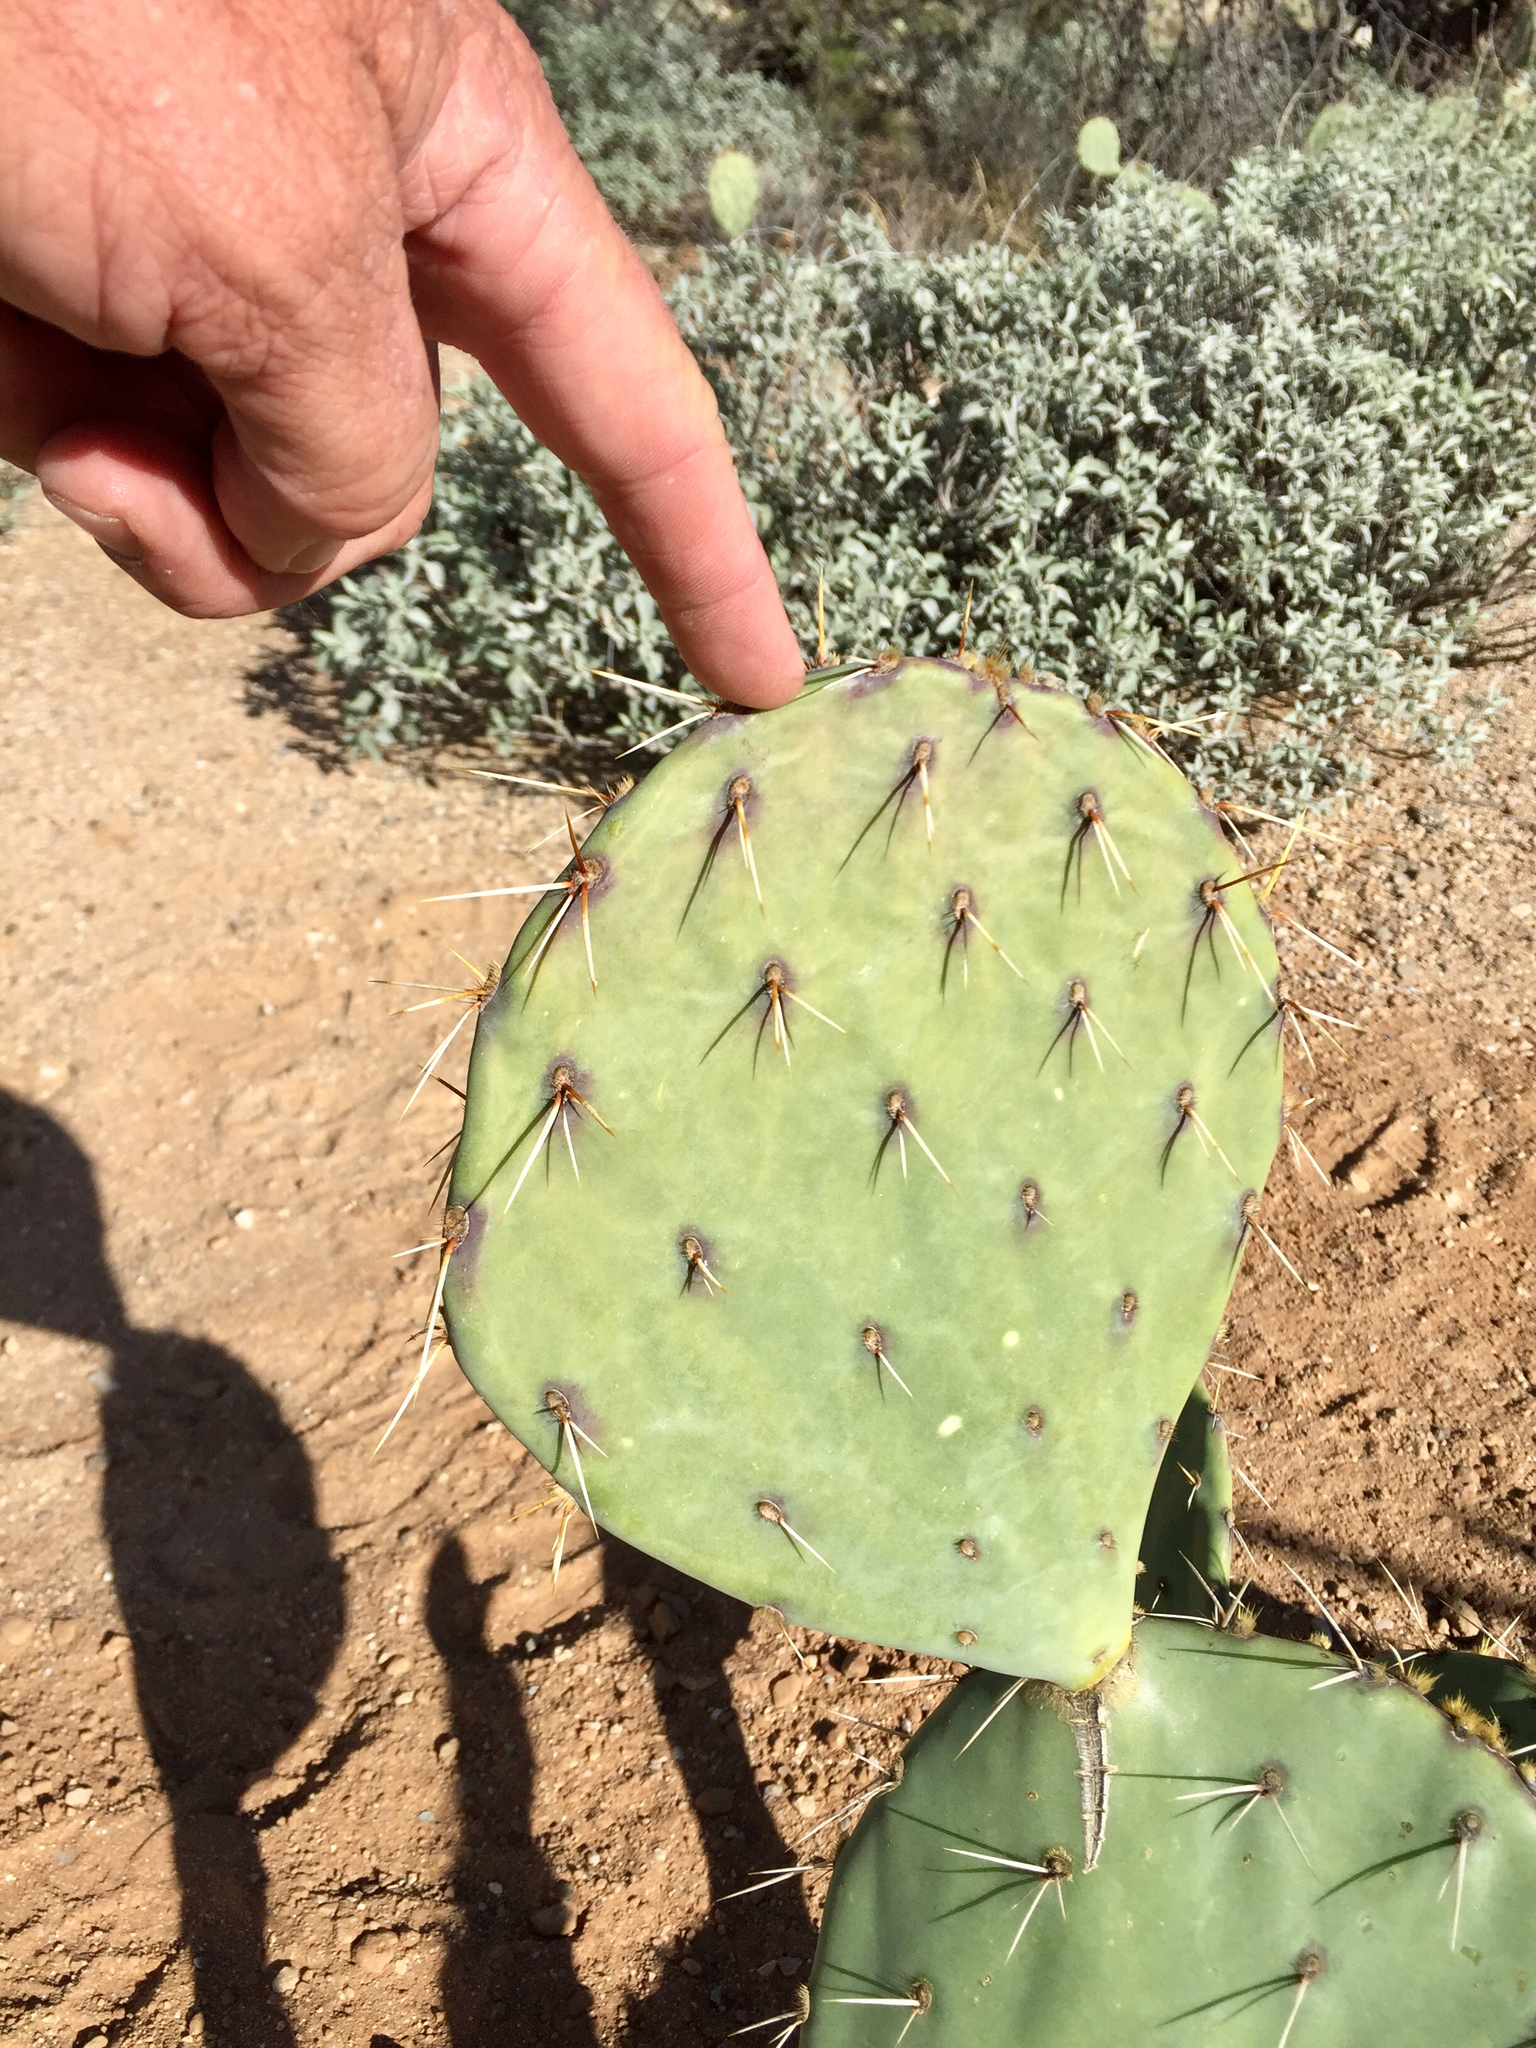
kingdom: Plantae
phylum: Tracheophyta
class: Magnoliopsida
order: Caryophyllales
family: Cactaceae
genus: Opuntia
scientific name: Opuntia engelmannii
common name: Cactus-apple
